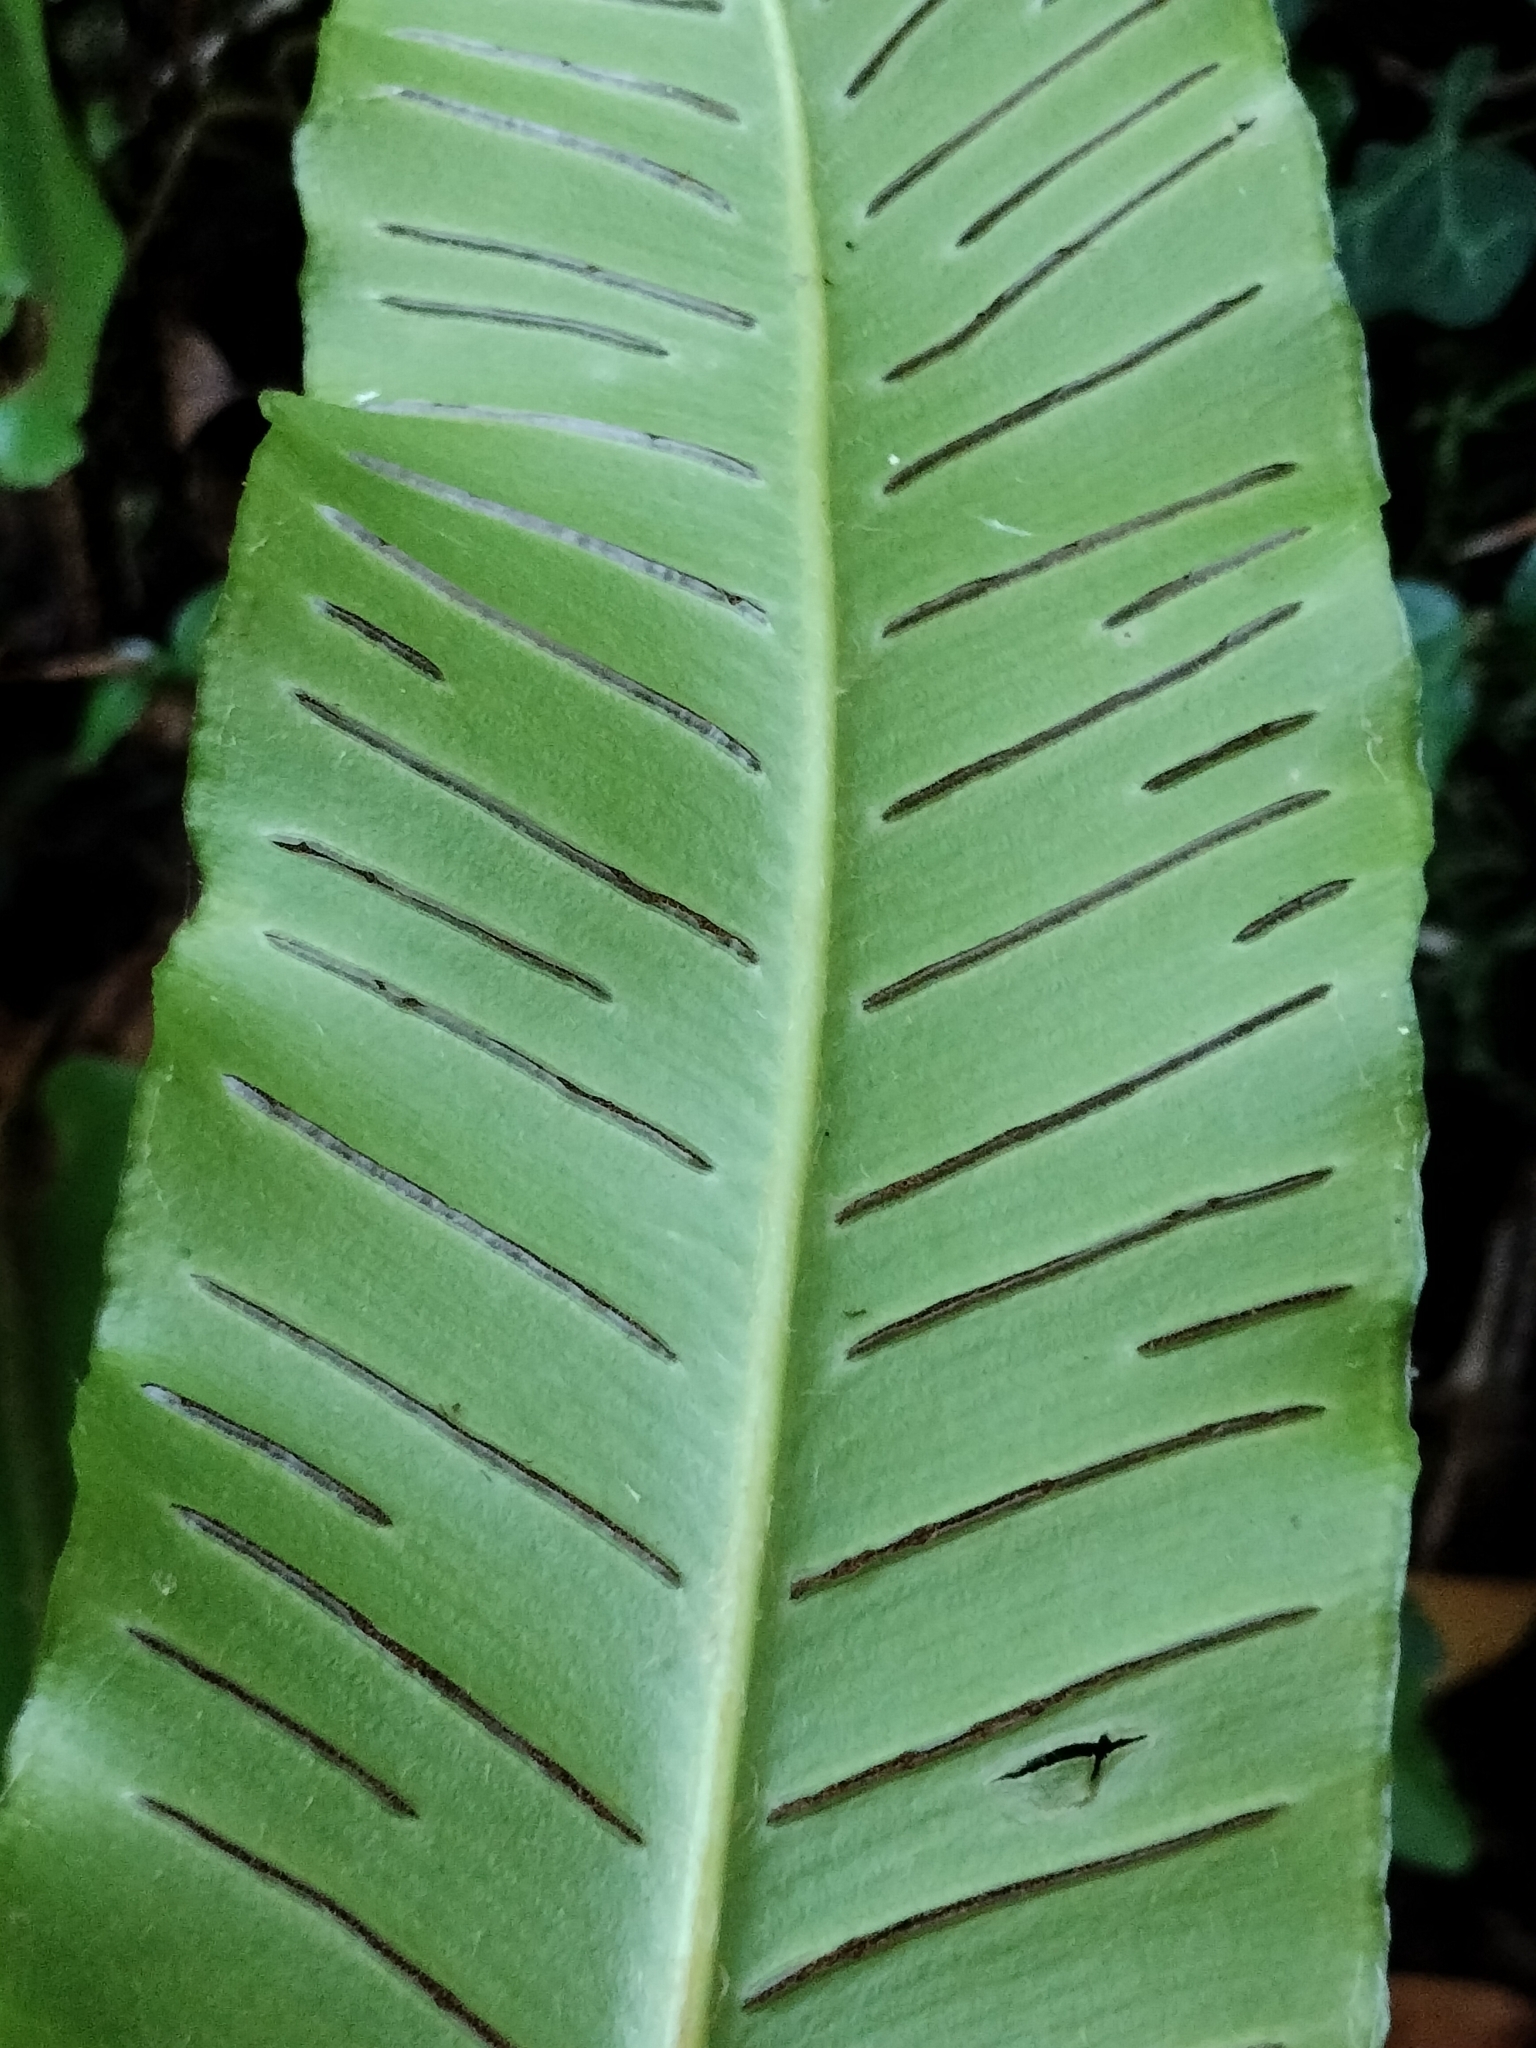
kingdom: Plantae
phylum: Tracheophyta
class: Polypodiopsida
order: Polypodiales
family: Aspleniaceae
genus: Asplenium
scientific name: Asplenium scolopendrium
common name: Hart's-tongue fern
